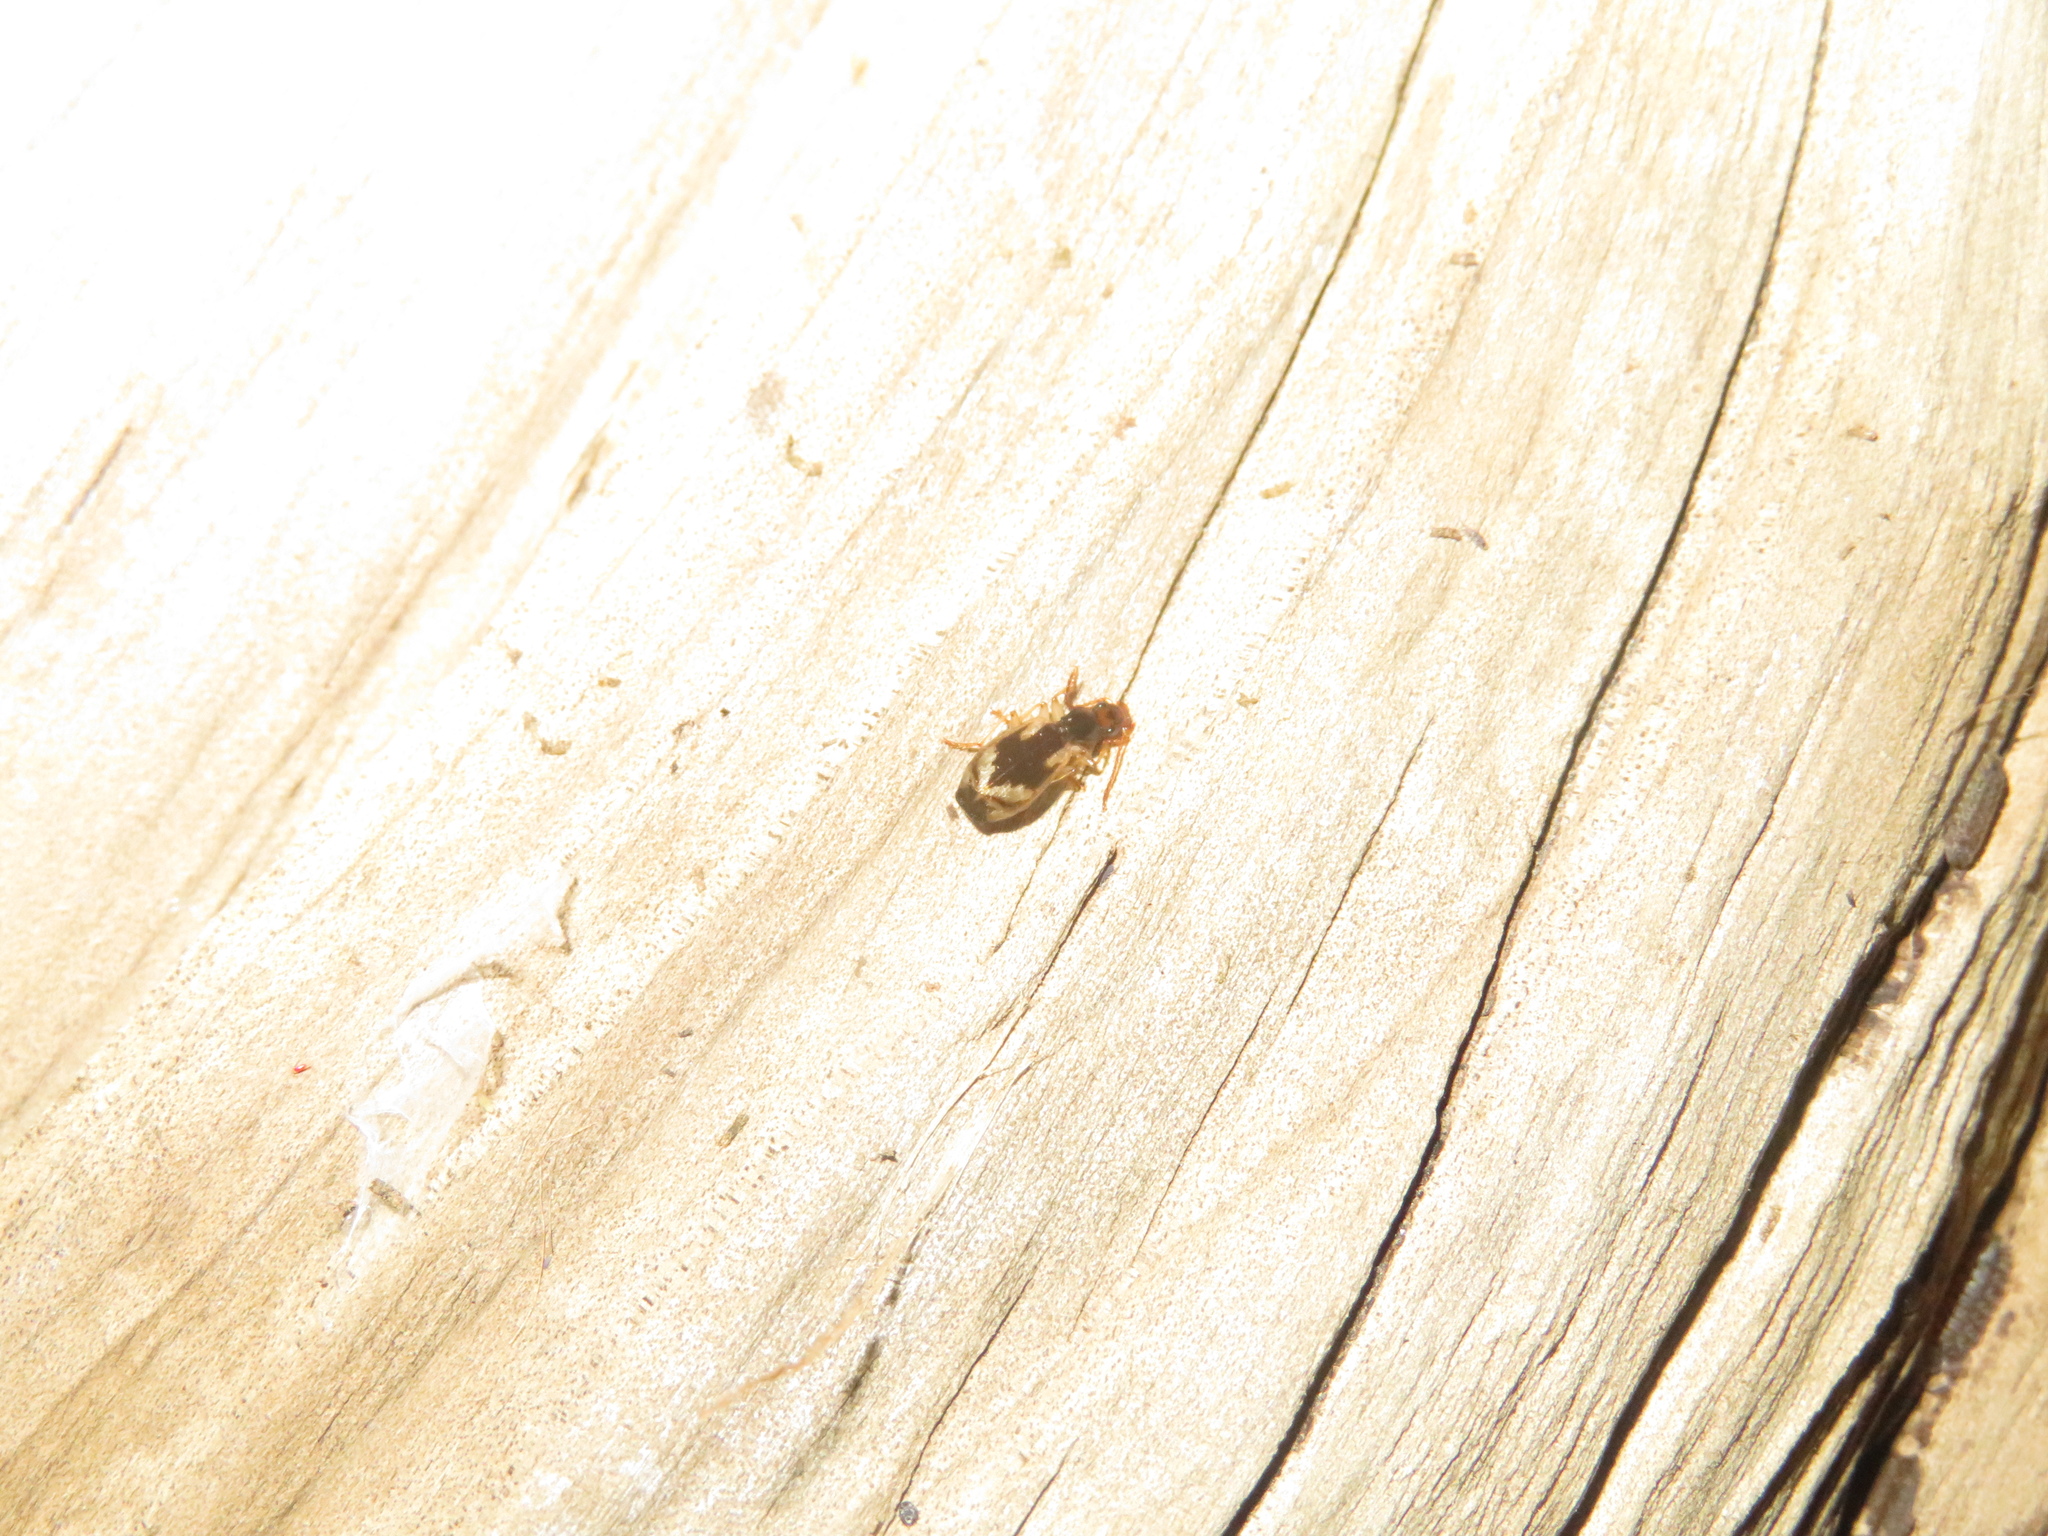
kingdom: Animalia
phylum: Arthropoda
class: Insecta
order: Coleoptera
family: Carabidae
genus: Demetrida
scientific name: Demetrida nasuta
